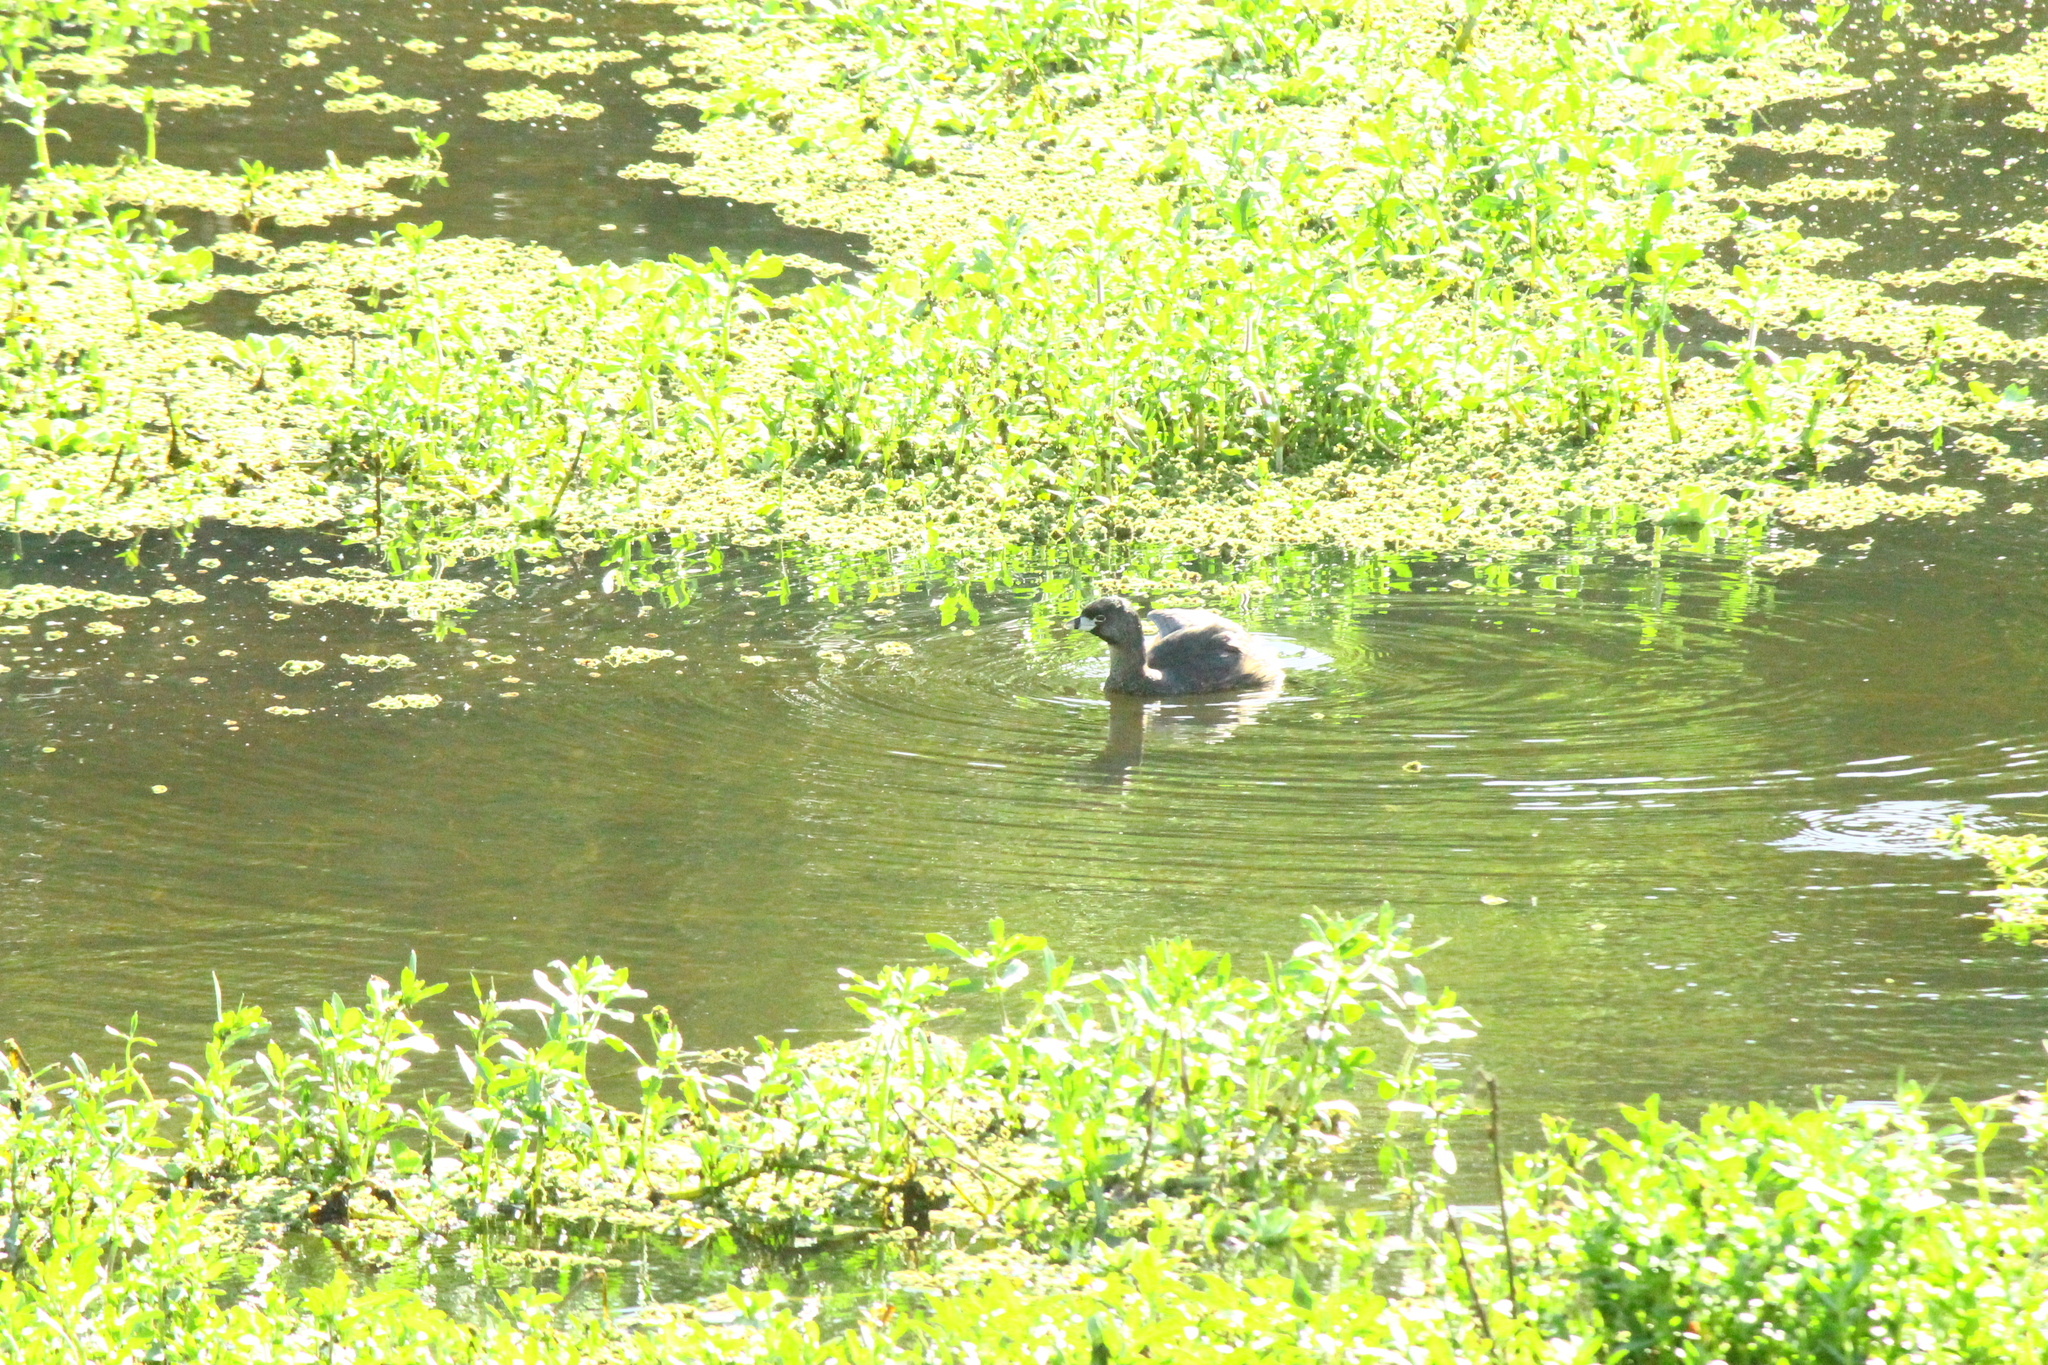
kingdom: Animalia
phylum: Chordata
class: Aves
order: Podicipediformes
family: Podicipedidae
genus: Podilymbus
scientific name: Podilymbus podiceps
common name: Pied-billed grebe
